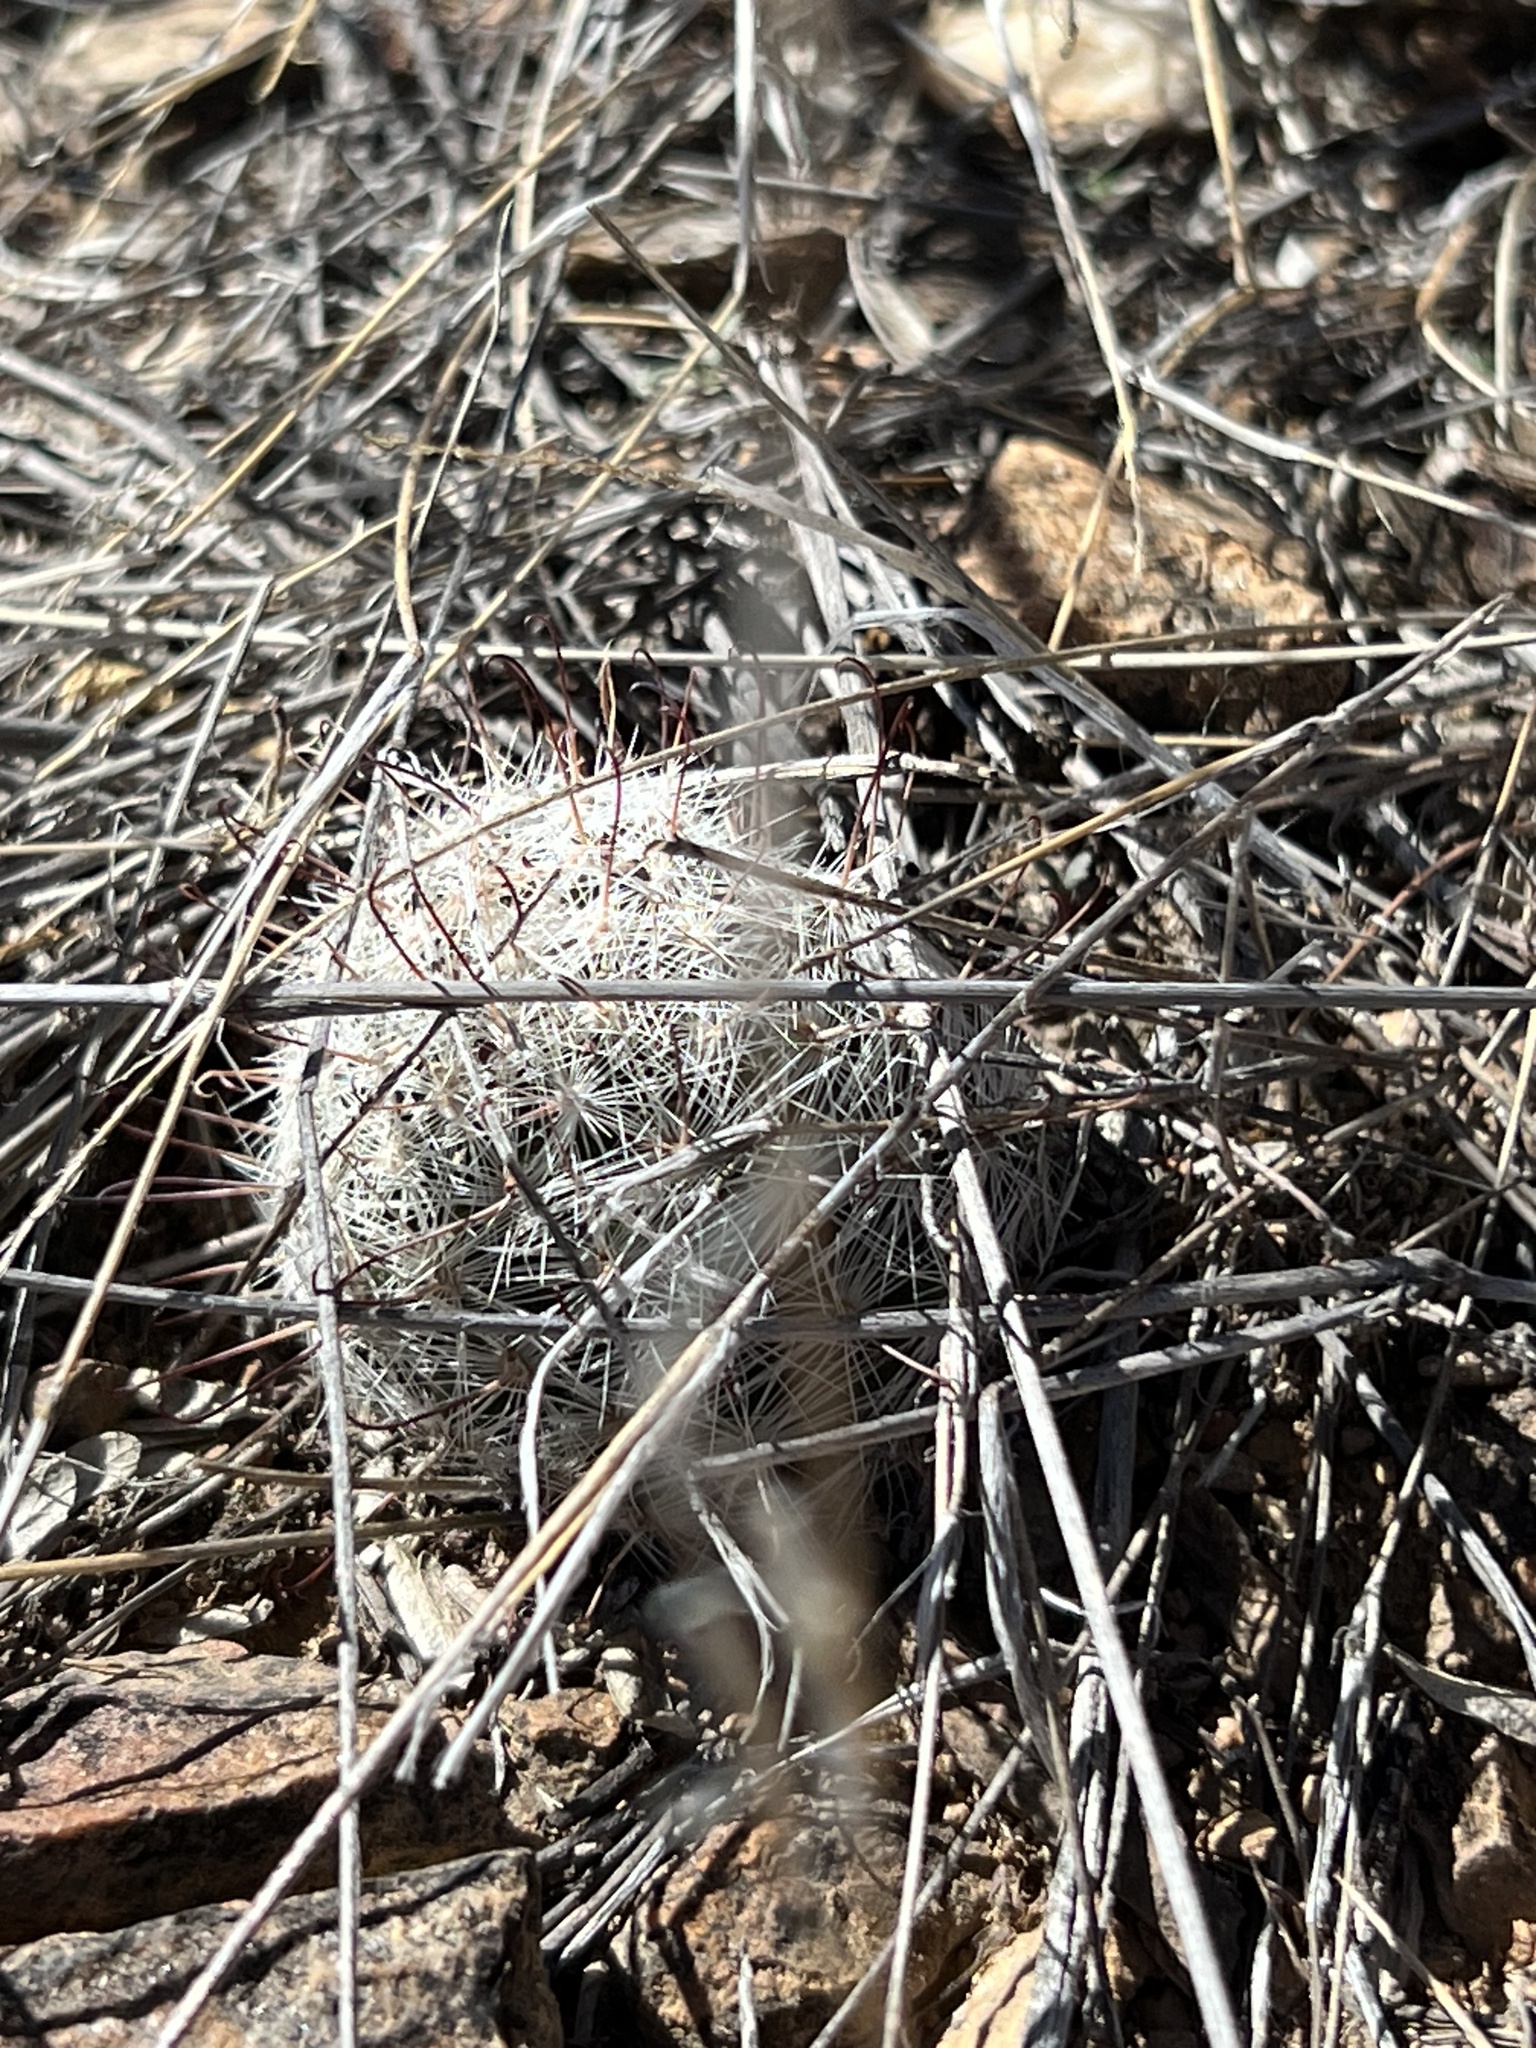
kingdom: Plantae
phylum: Tracheophyta
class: Magnoliopsida
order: Caryophyllales
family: Cactaceae
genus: Cochemiea
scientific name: Cochemiea grahamii
